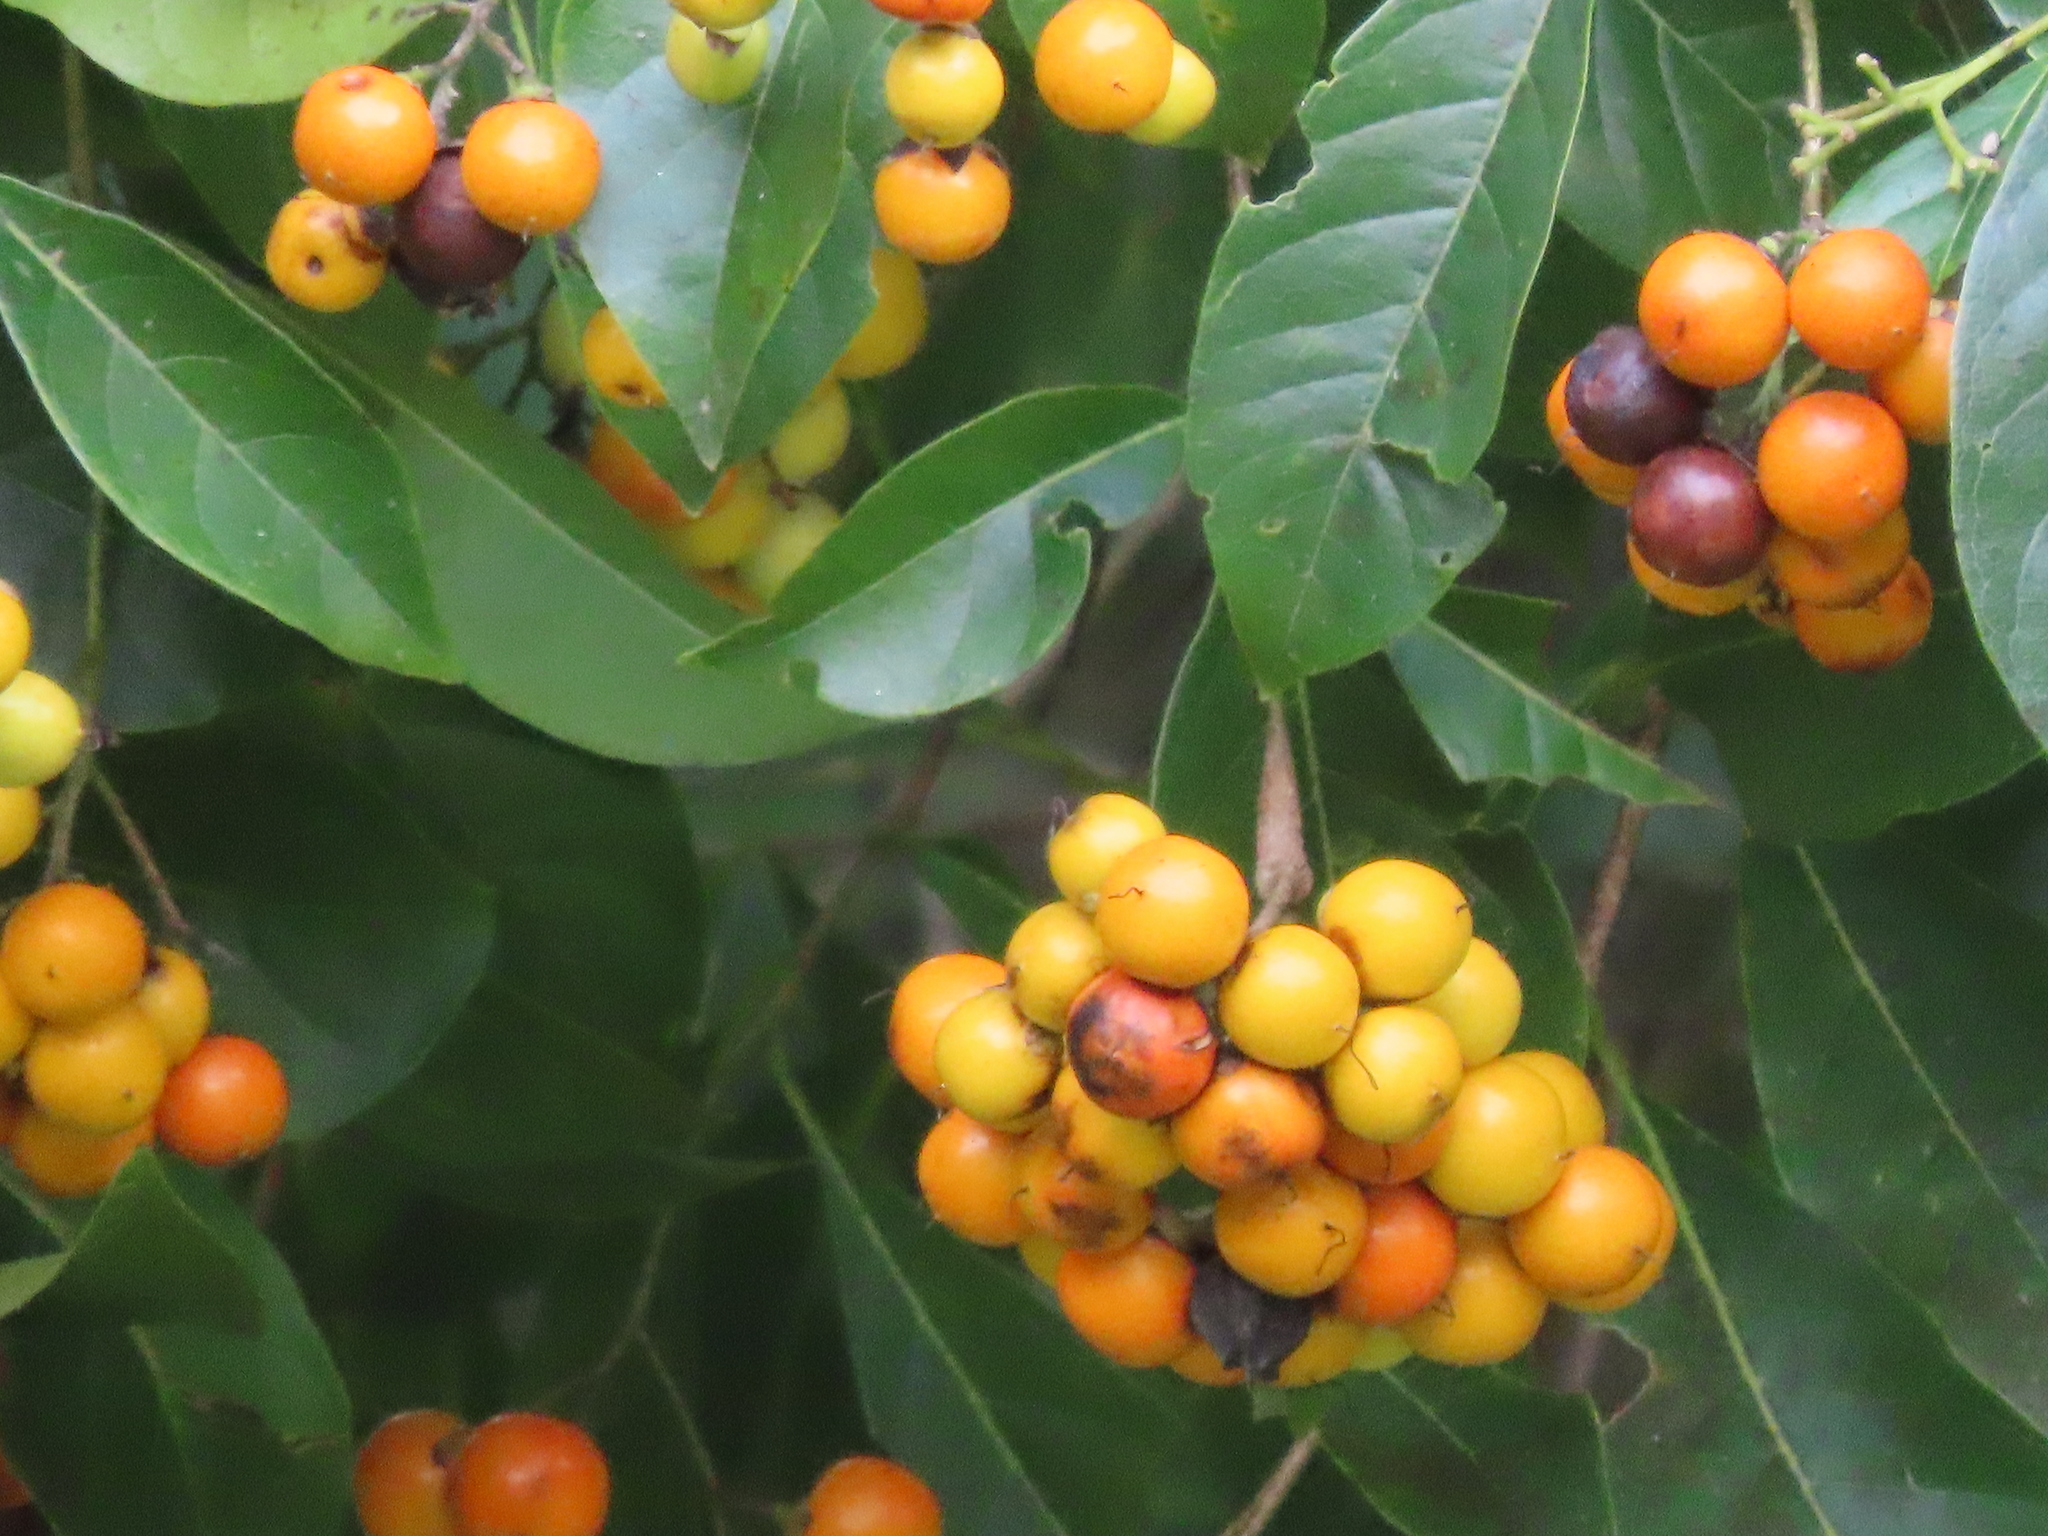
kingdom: Plantae
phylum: Tracheophyta
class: Magnoliopsida
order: Boraginales
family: Ehretiaceae
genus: Ehretia
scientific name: Ehretia tinifolia
